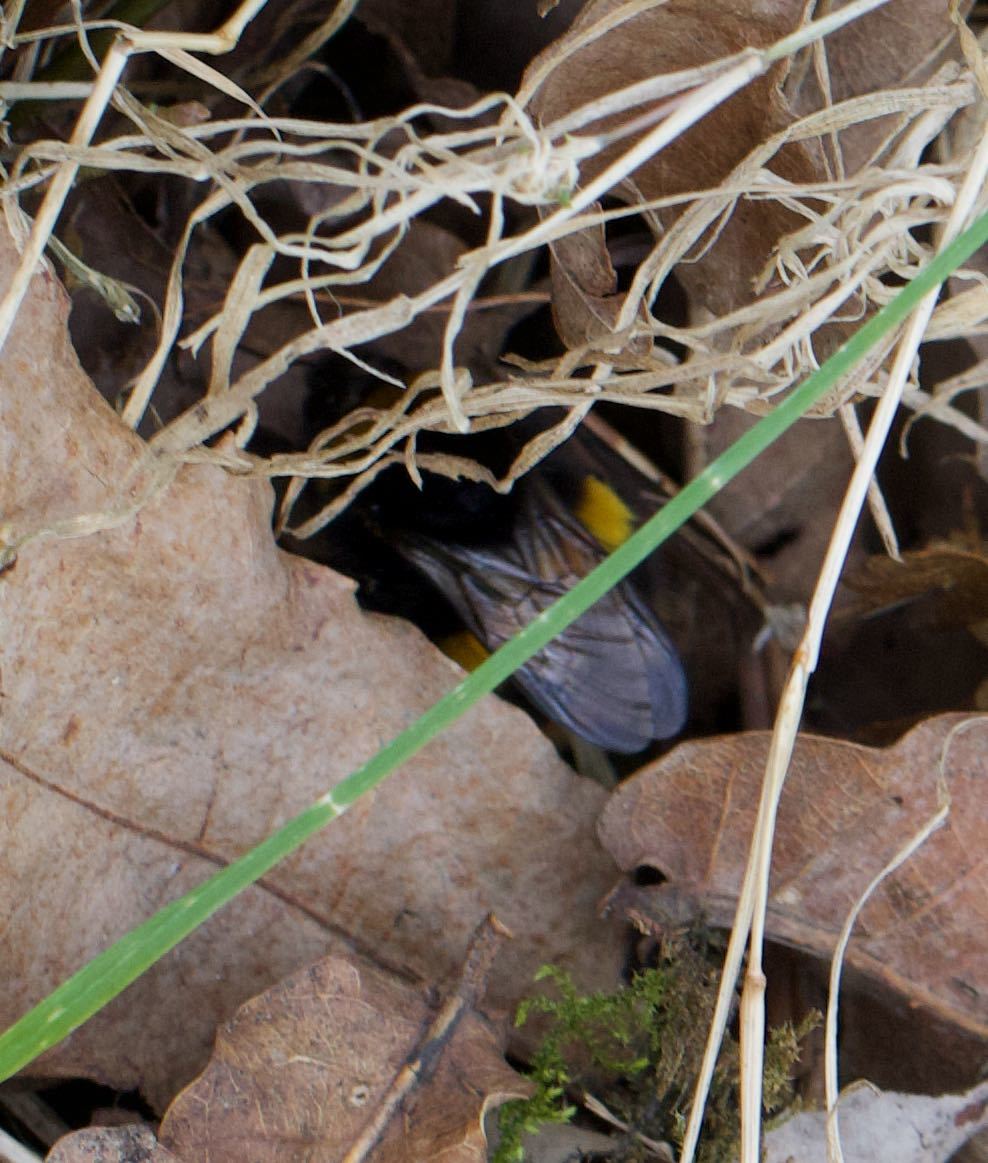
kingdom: Animalia
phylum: Arthropoda
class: Insecta
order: Hymenoptera
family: Apidae
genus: Bombus
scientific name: Bombus terrestris
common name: Buff-tailed bumblebee
